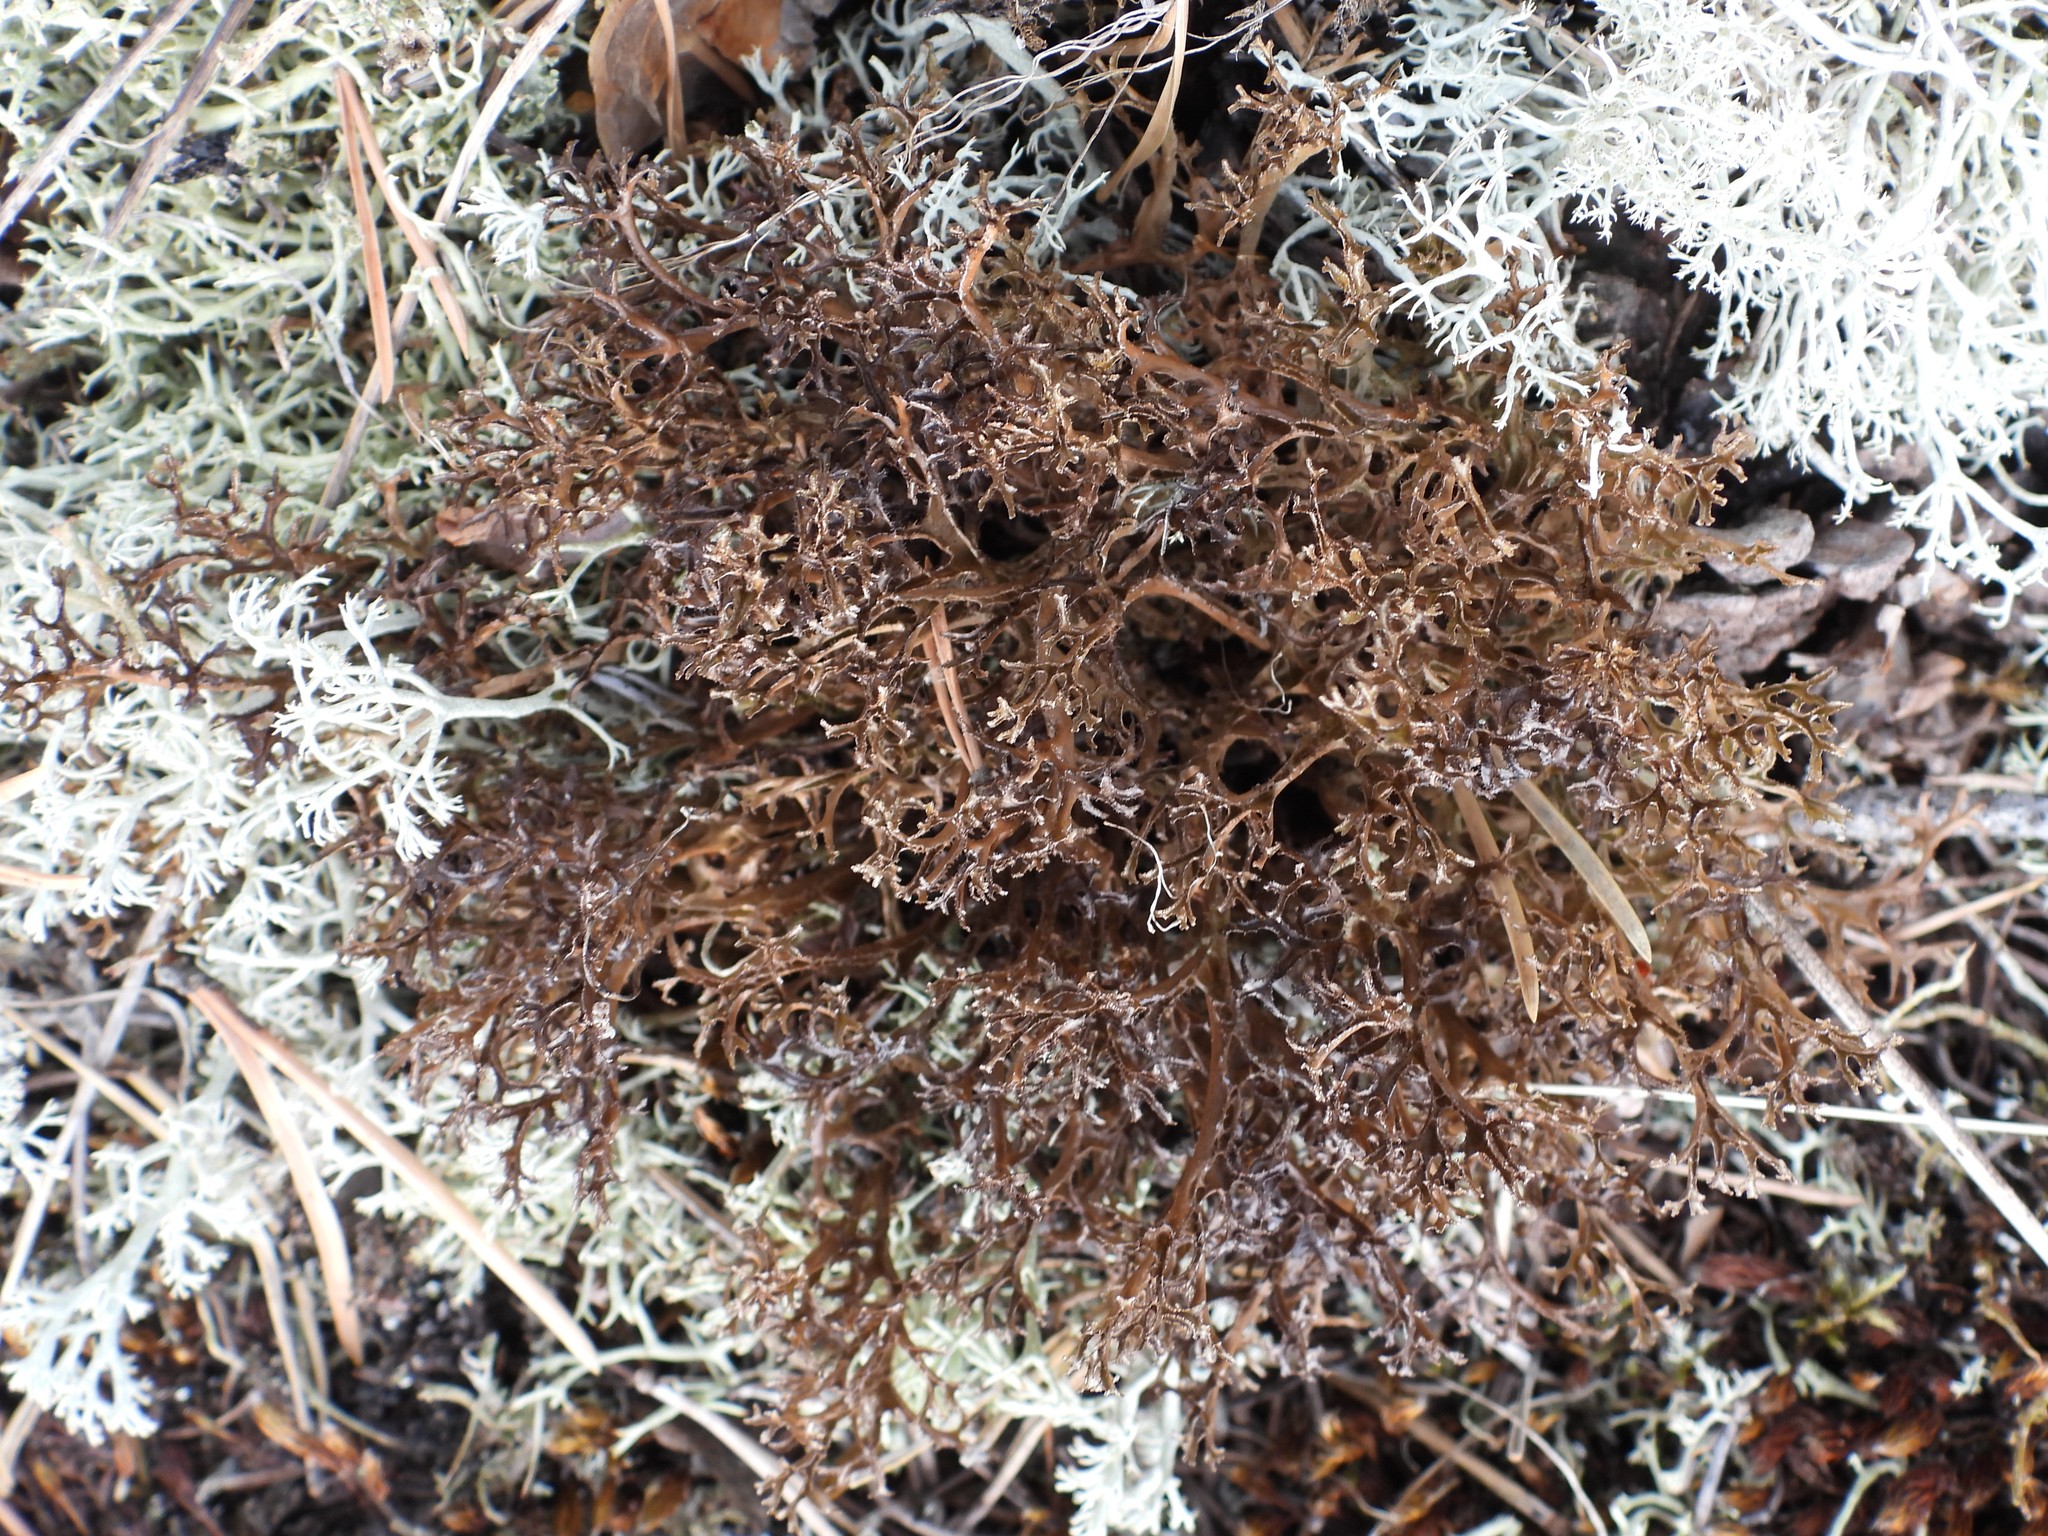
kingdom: Fungi
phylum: Ascomycota
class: Lecanoromycetes
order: Lecanorales
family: Parmeliaceae
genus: Cetraria
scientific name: Cetraria ericetorum
